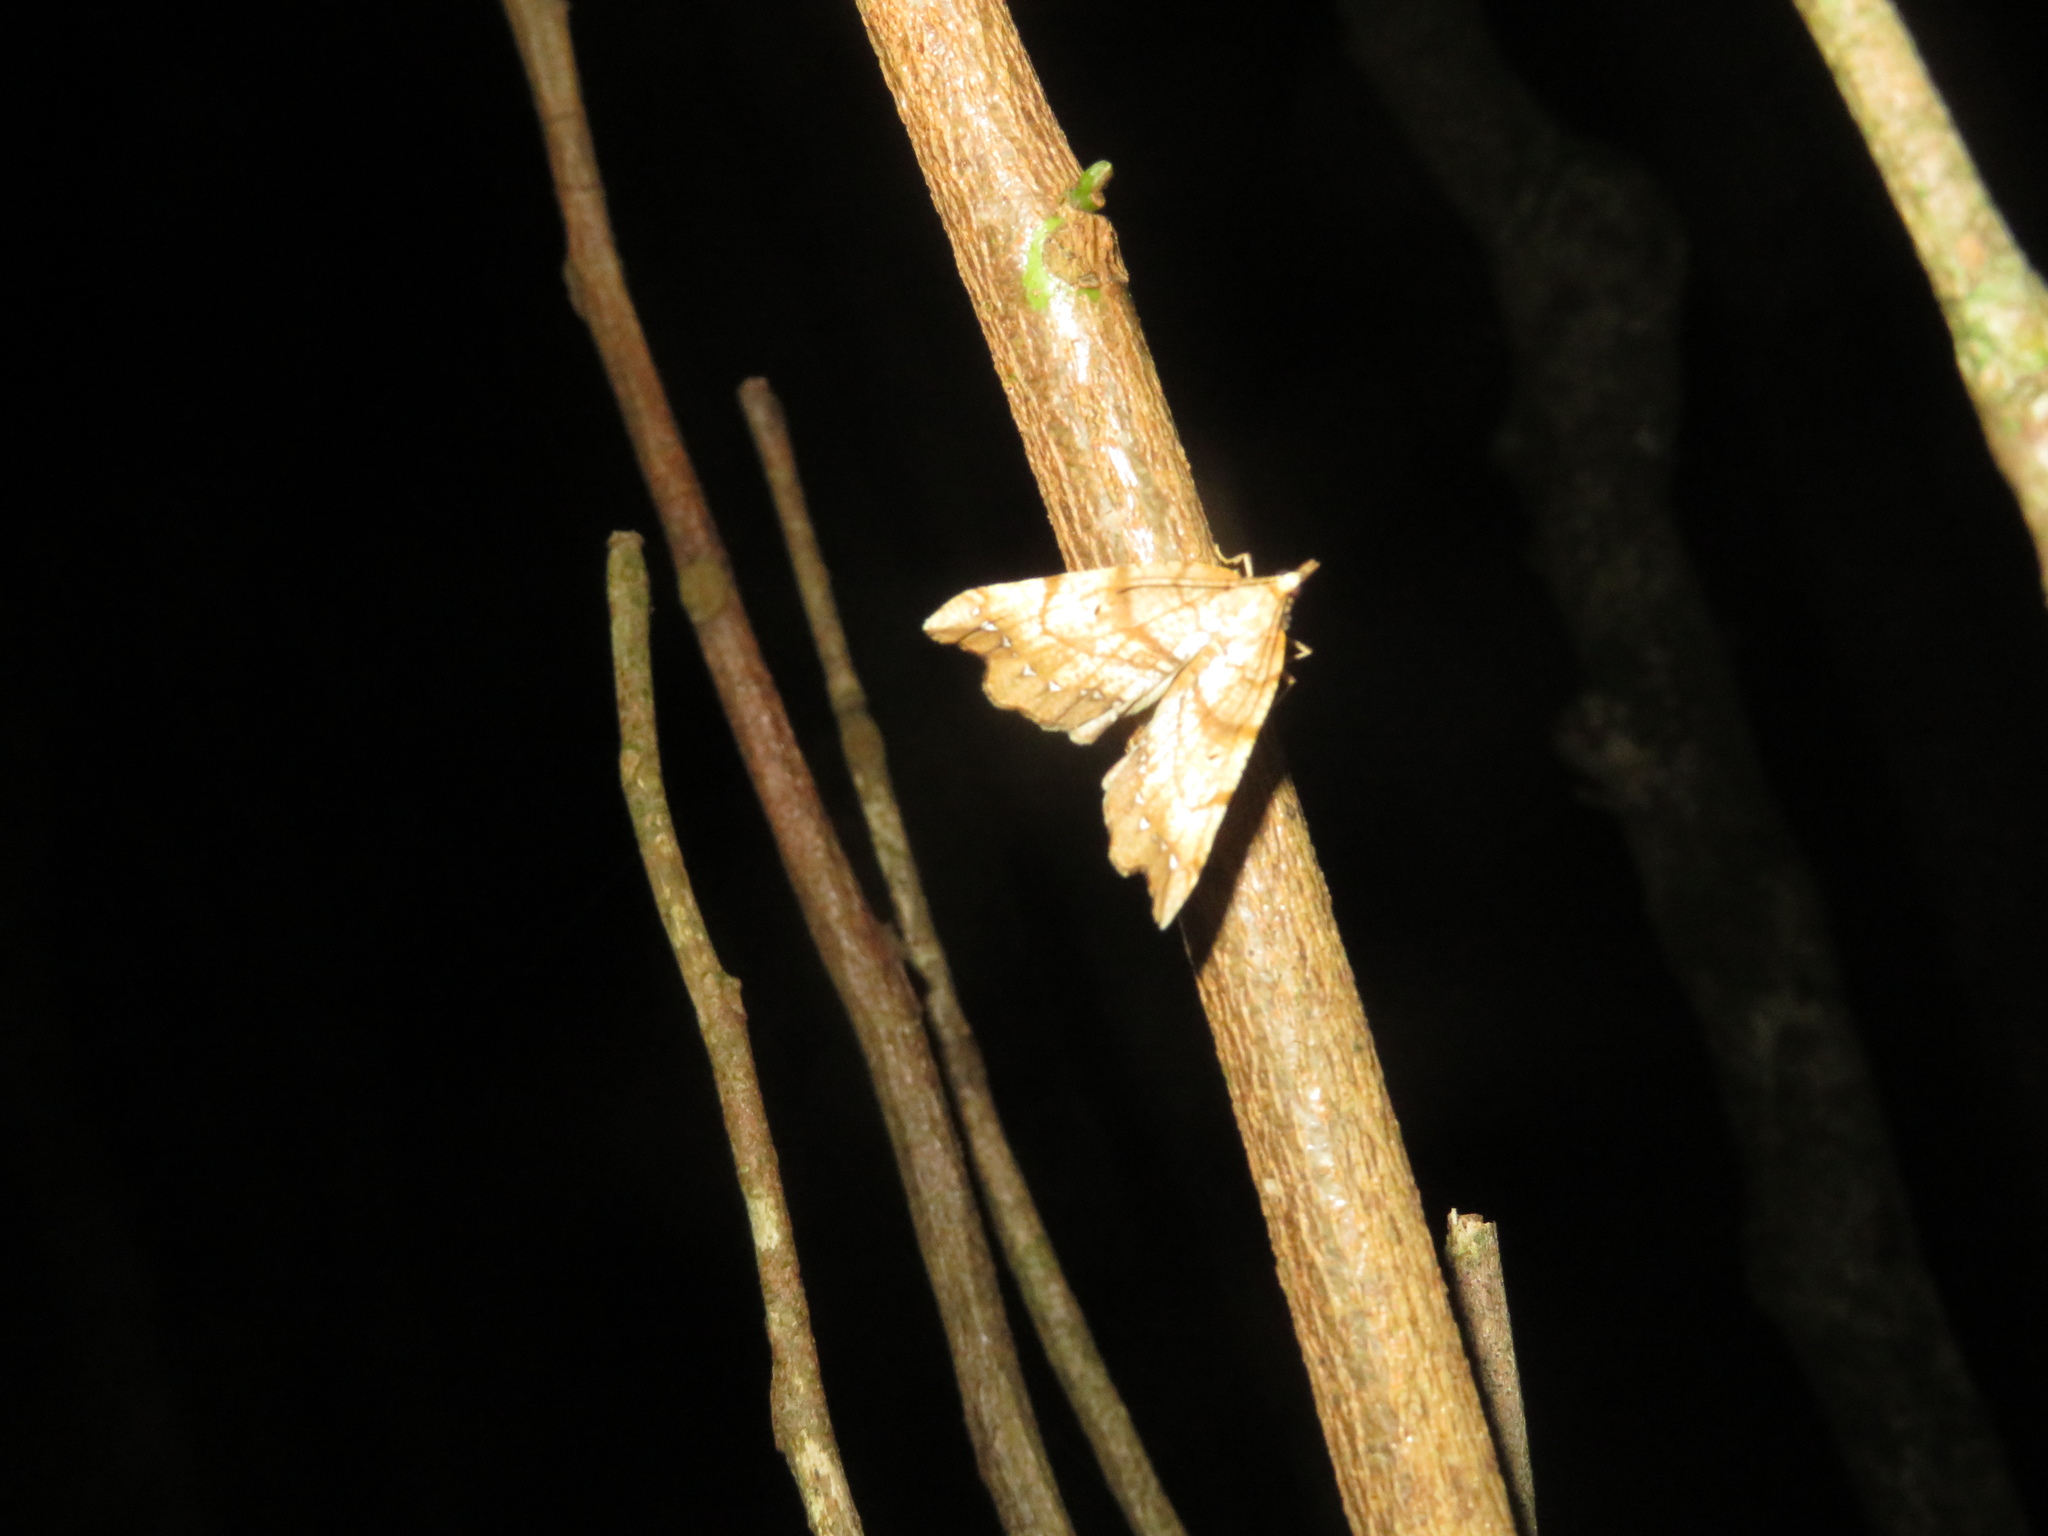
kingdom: Animalia
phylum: Arthropoda
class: Insecta
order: Lepidoptera
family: Geometridae
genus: Chalastra
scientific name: Chalastra pellurgata
